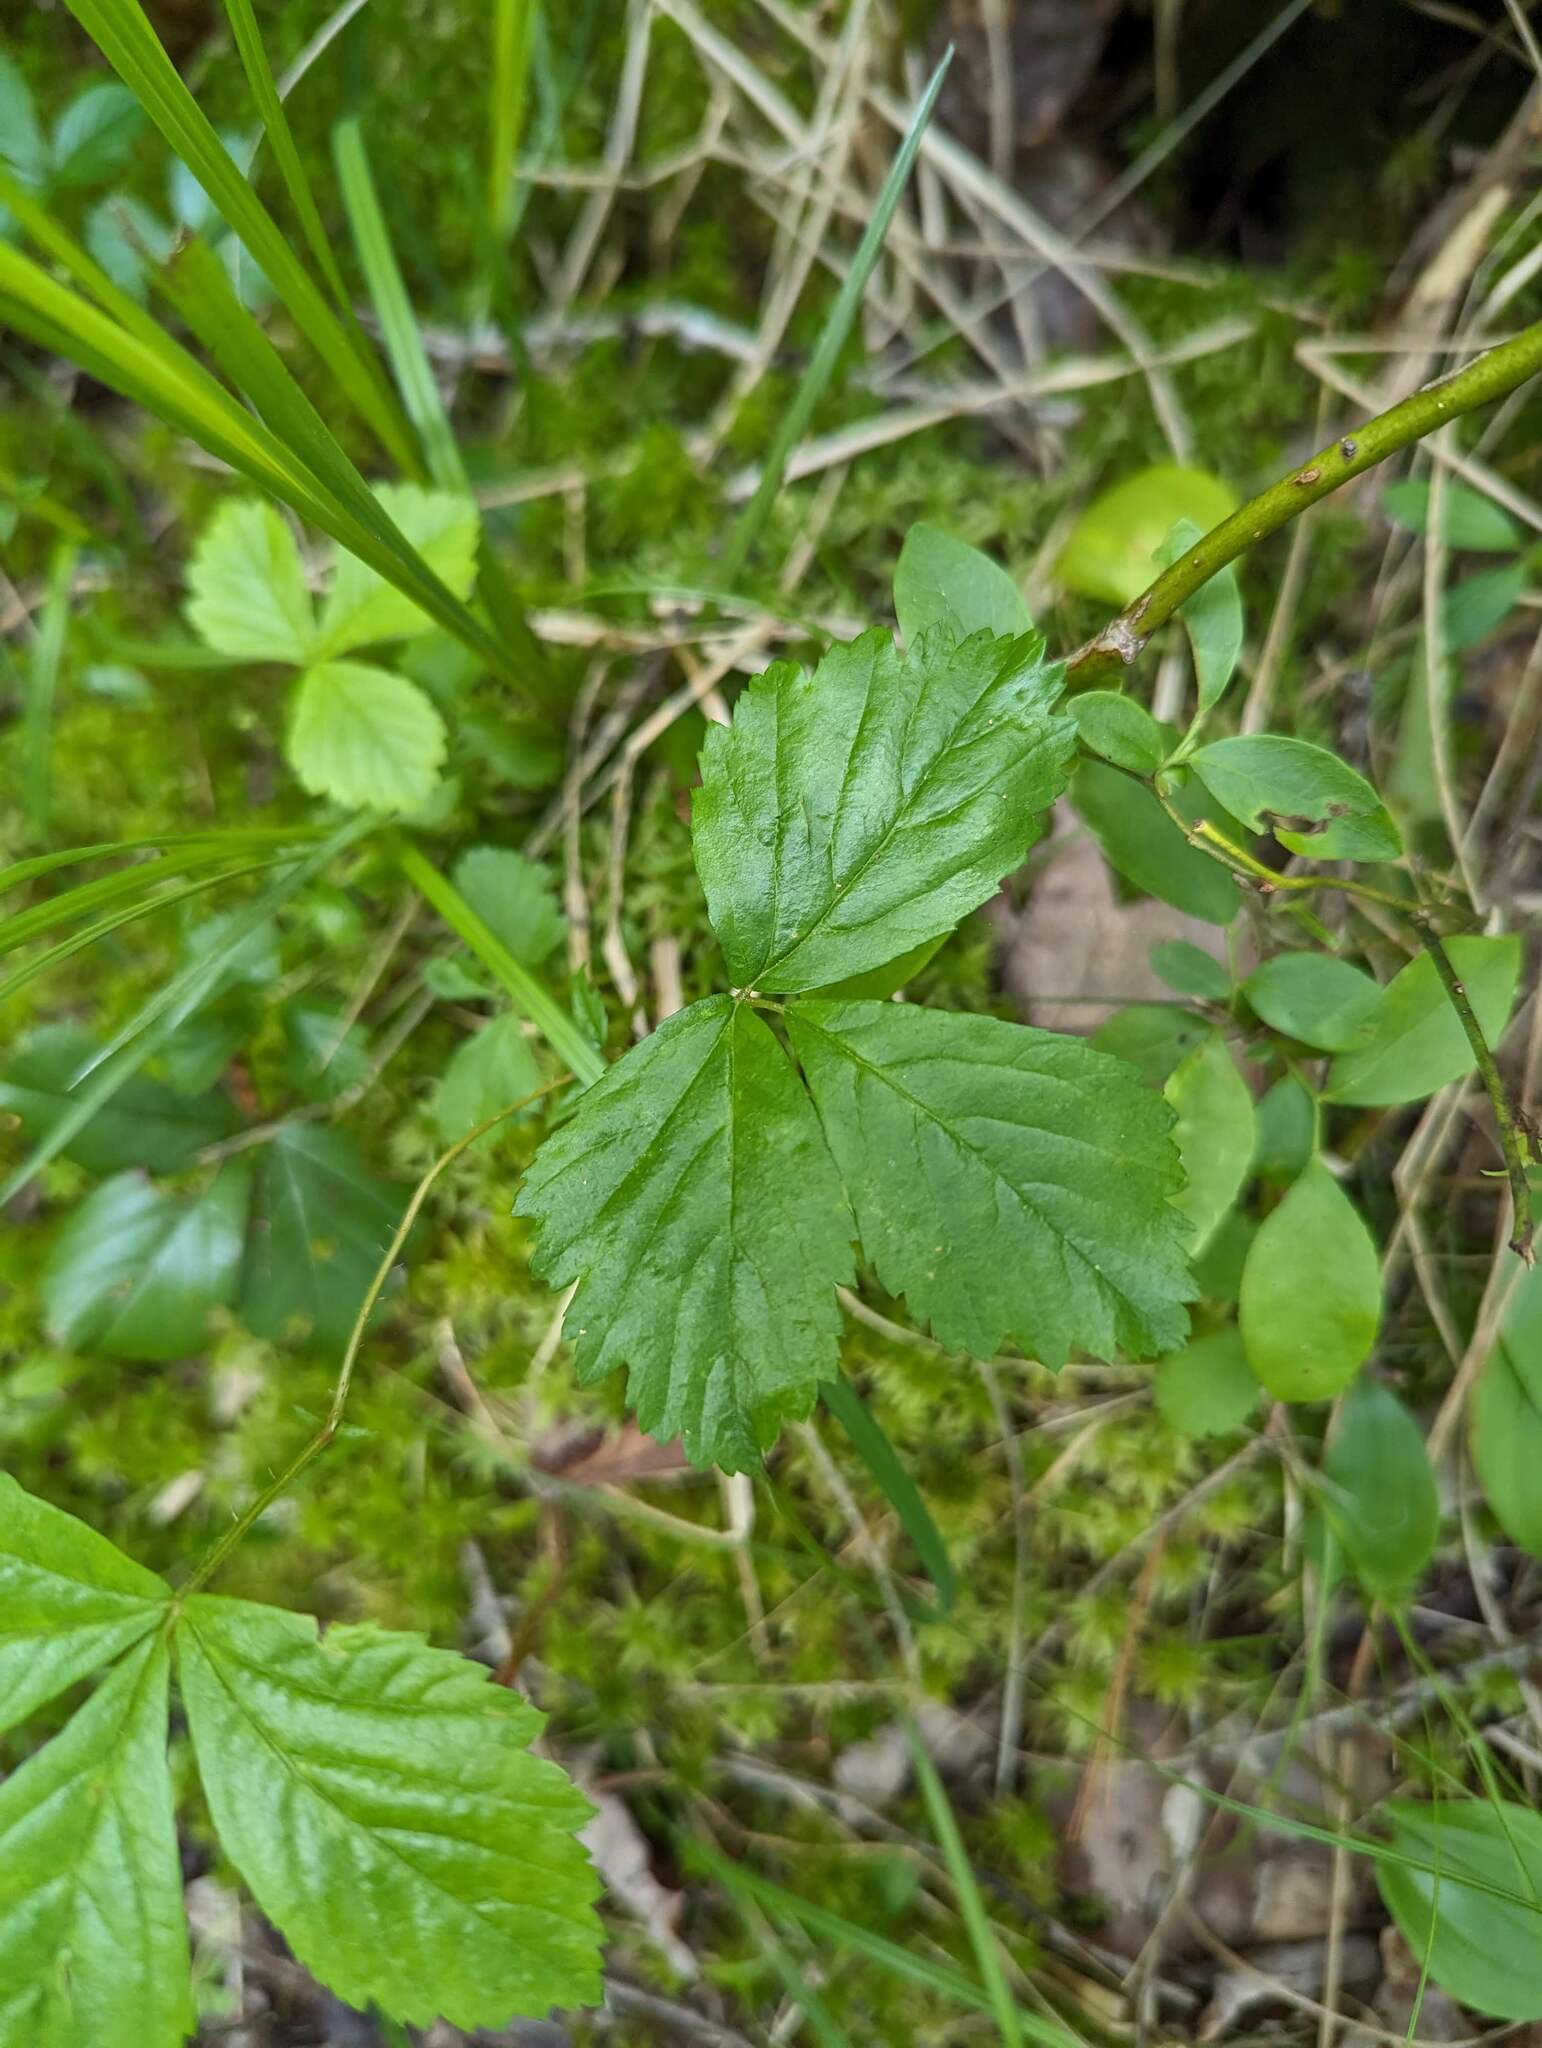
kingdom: Plantae
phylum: Tracheophyta
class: Magnoliopsida
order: Rosales
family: Rosaceae
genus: Rubus
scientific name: Rubus hispidus
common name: Running blackberry
